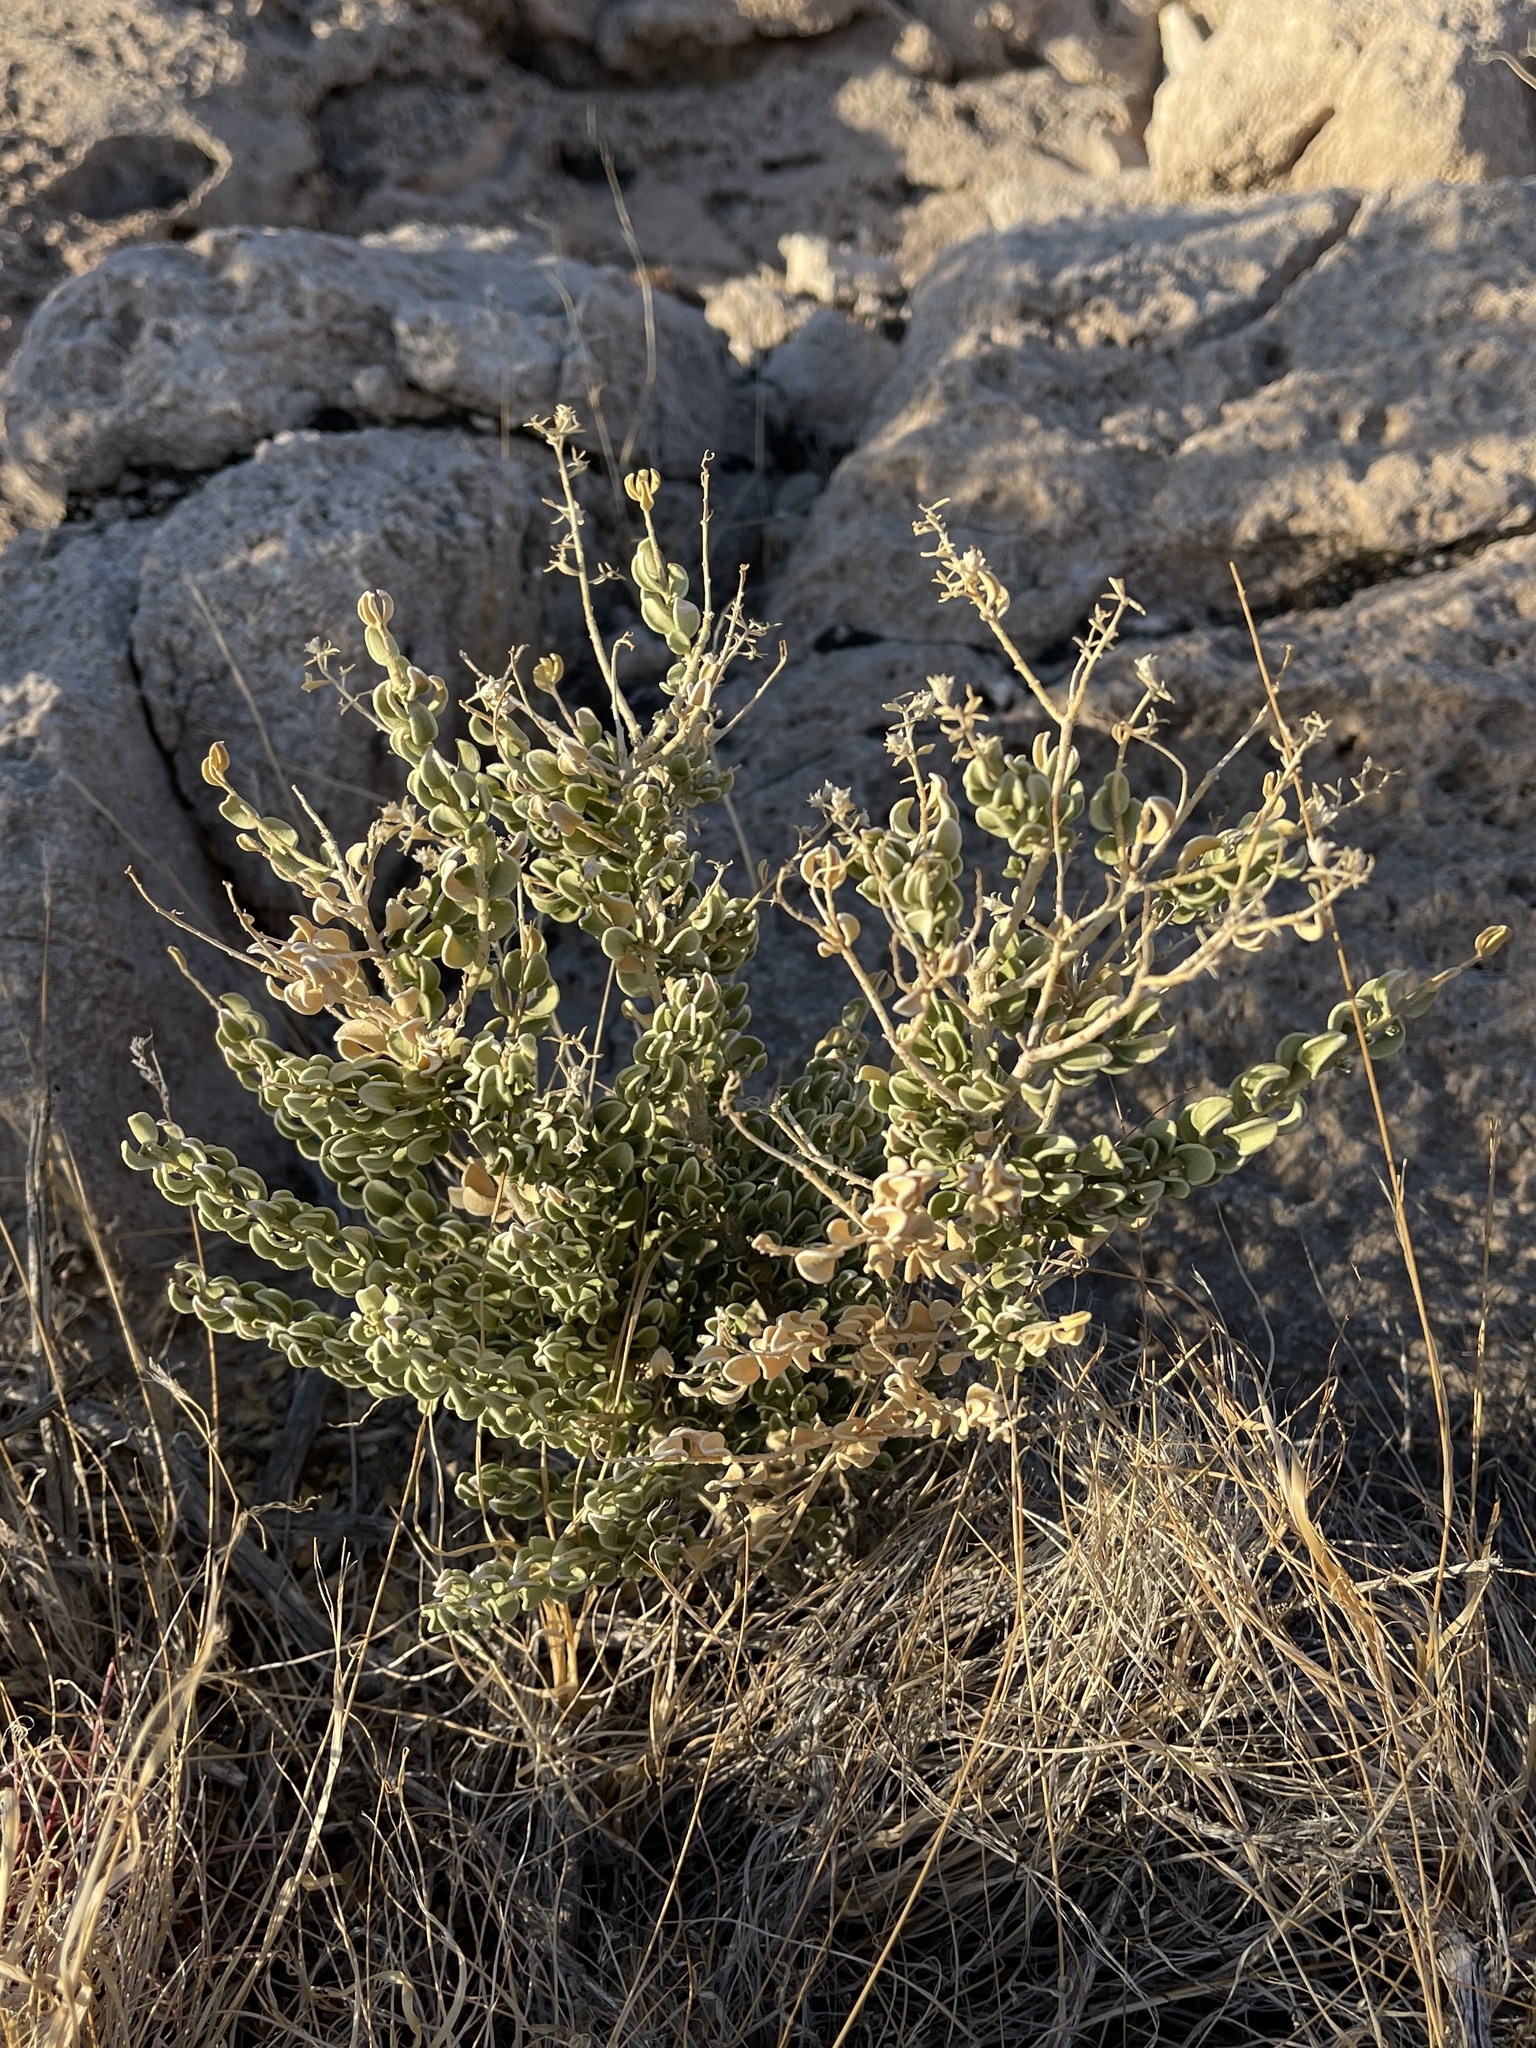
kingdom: Plantae
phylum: Tracheophyta
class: Magnoliopsida
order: Celastrales
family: Celastraceae
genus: Mortonia
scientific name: Mortonia utahensis
